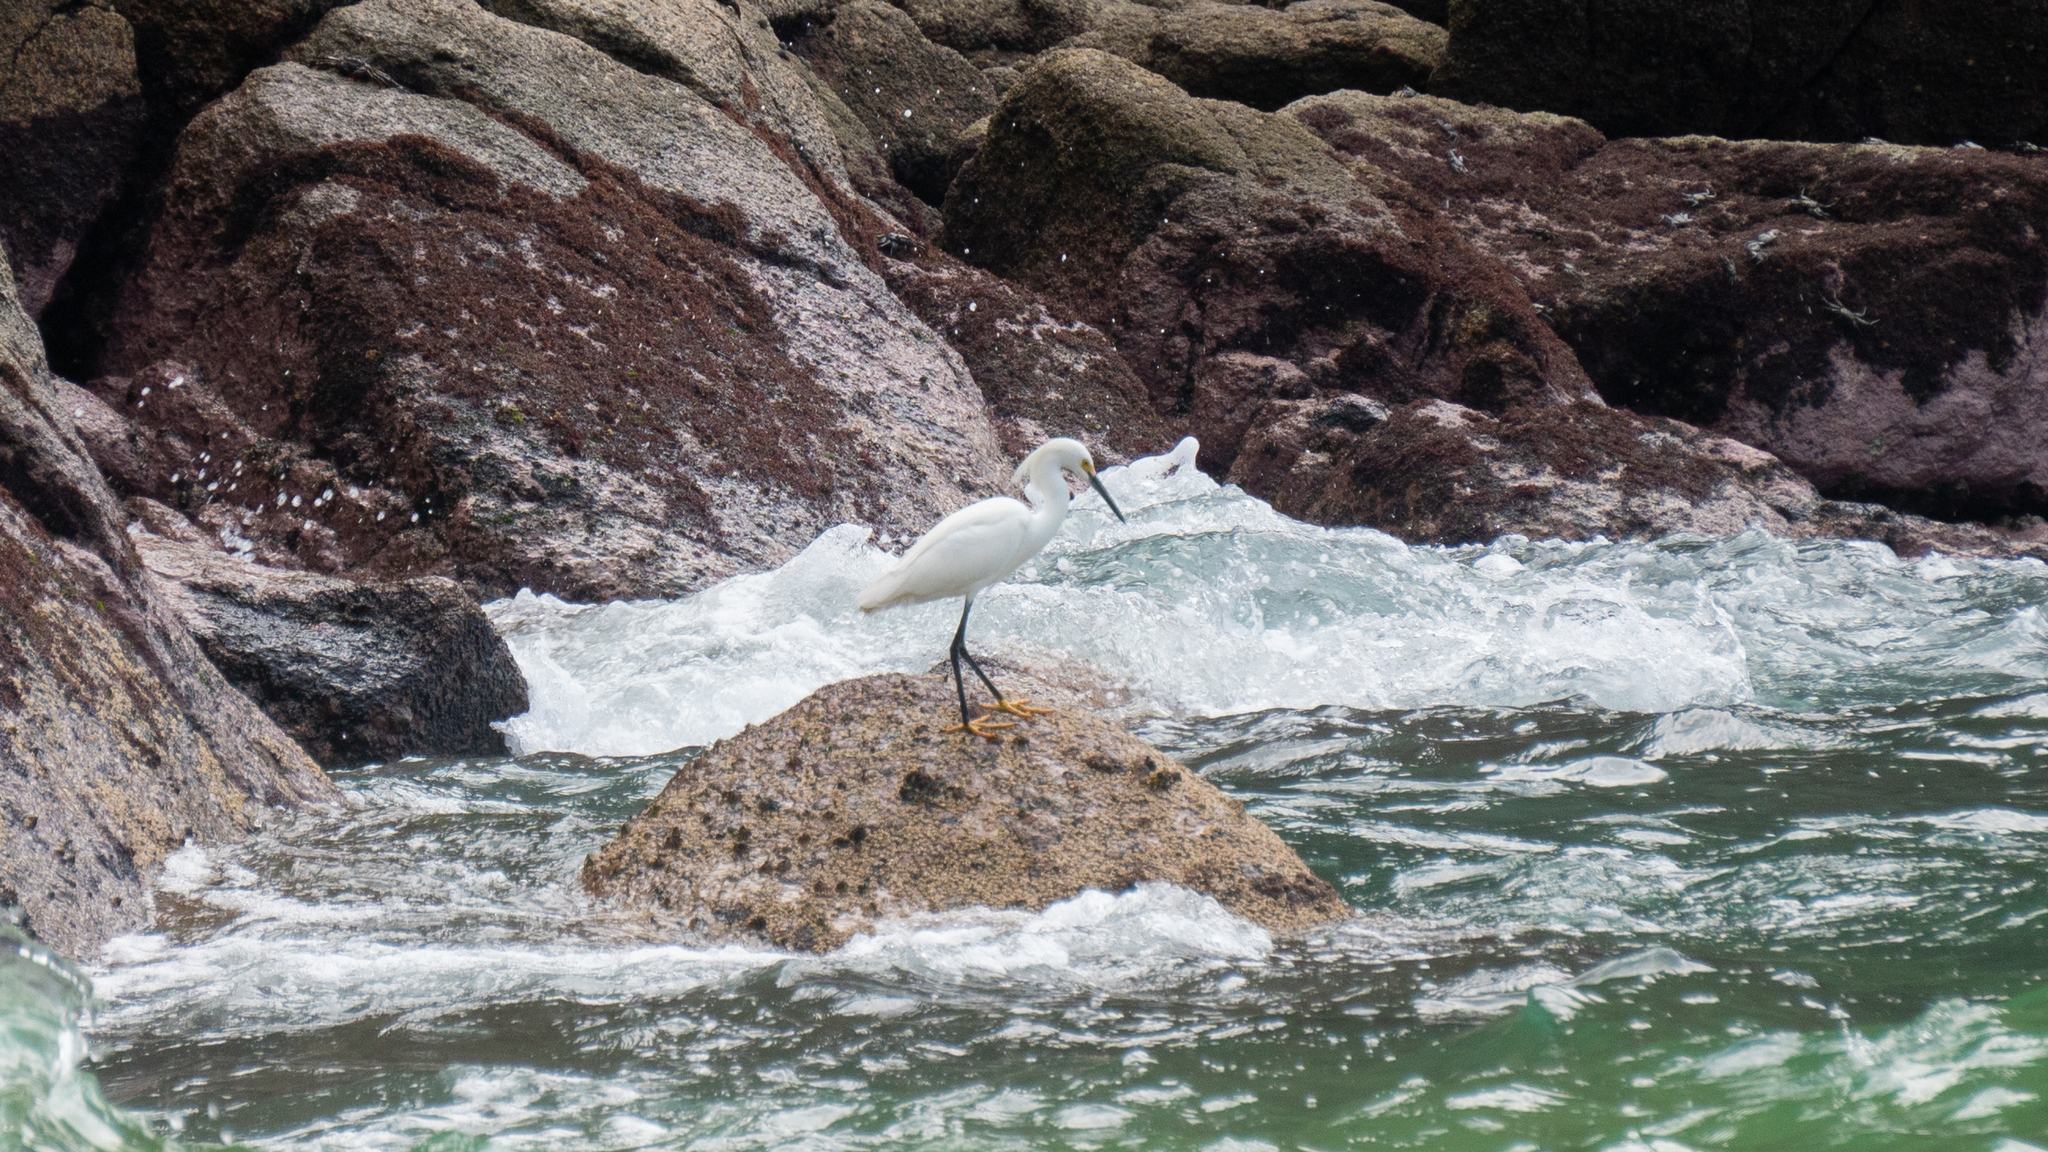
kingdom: Animalia
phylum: Chordata
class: Aves
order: Pelecaniformes
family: Ardeidae
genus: Egretta
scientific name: Egretta thula
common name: Snowy egret
